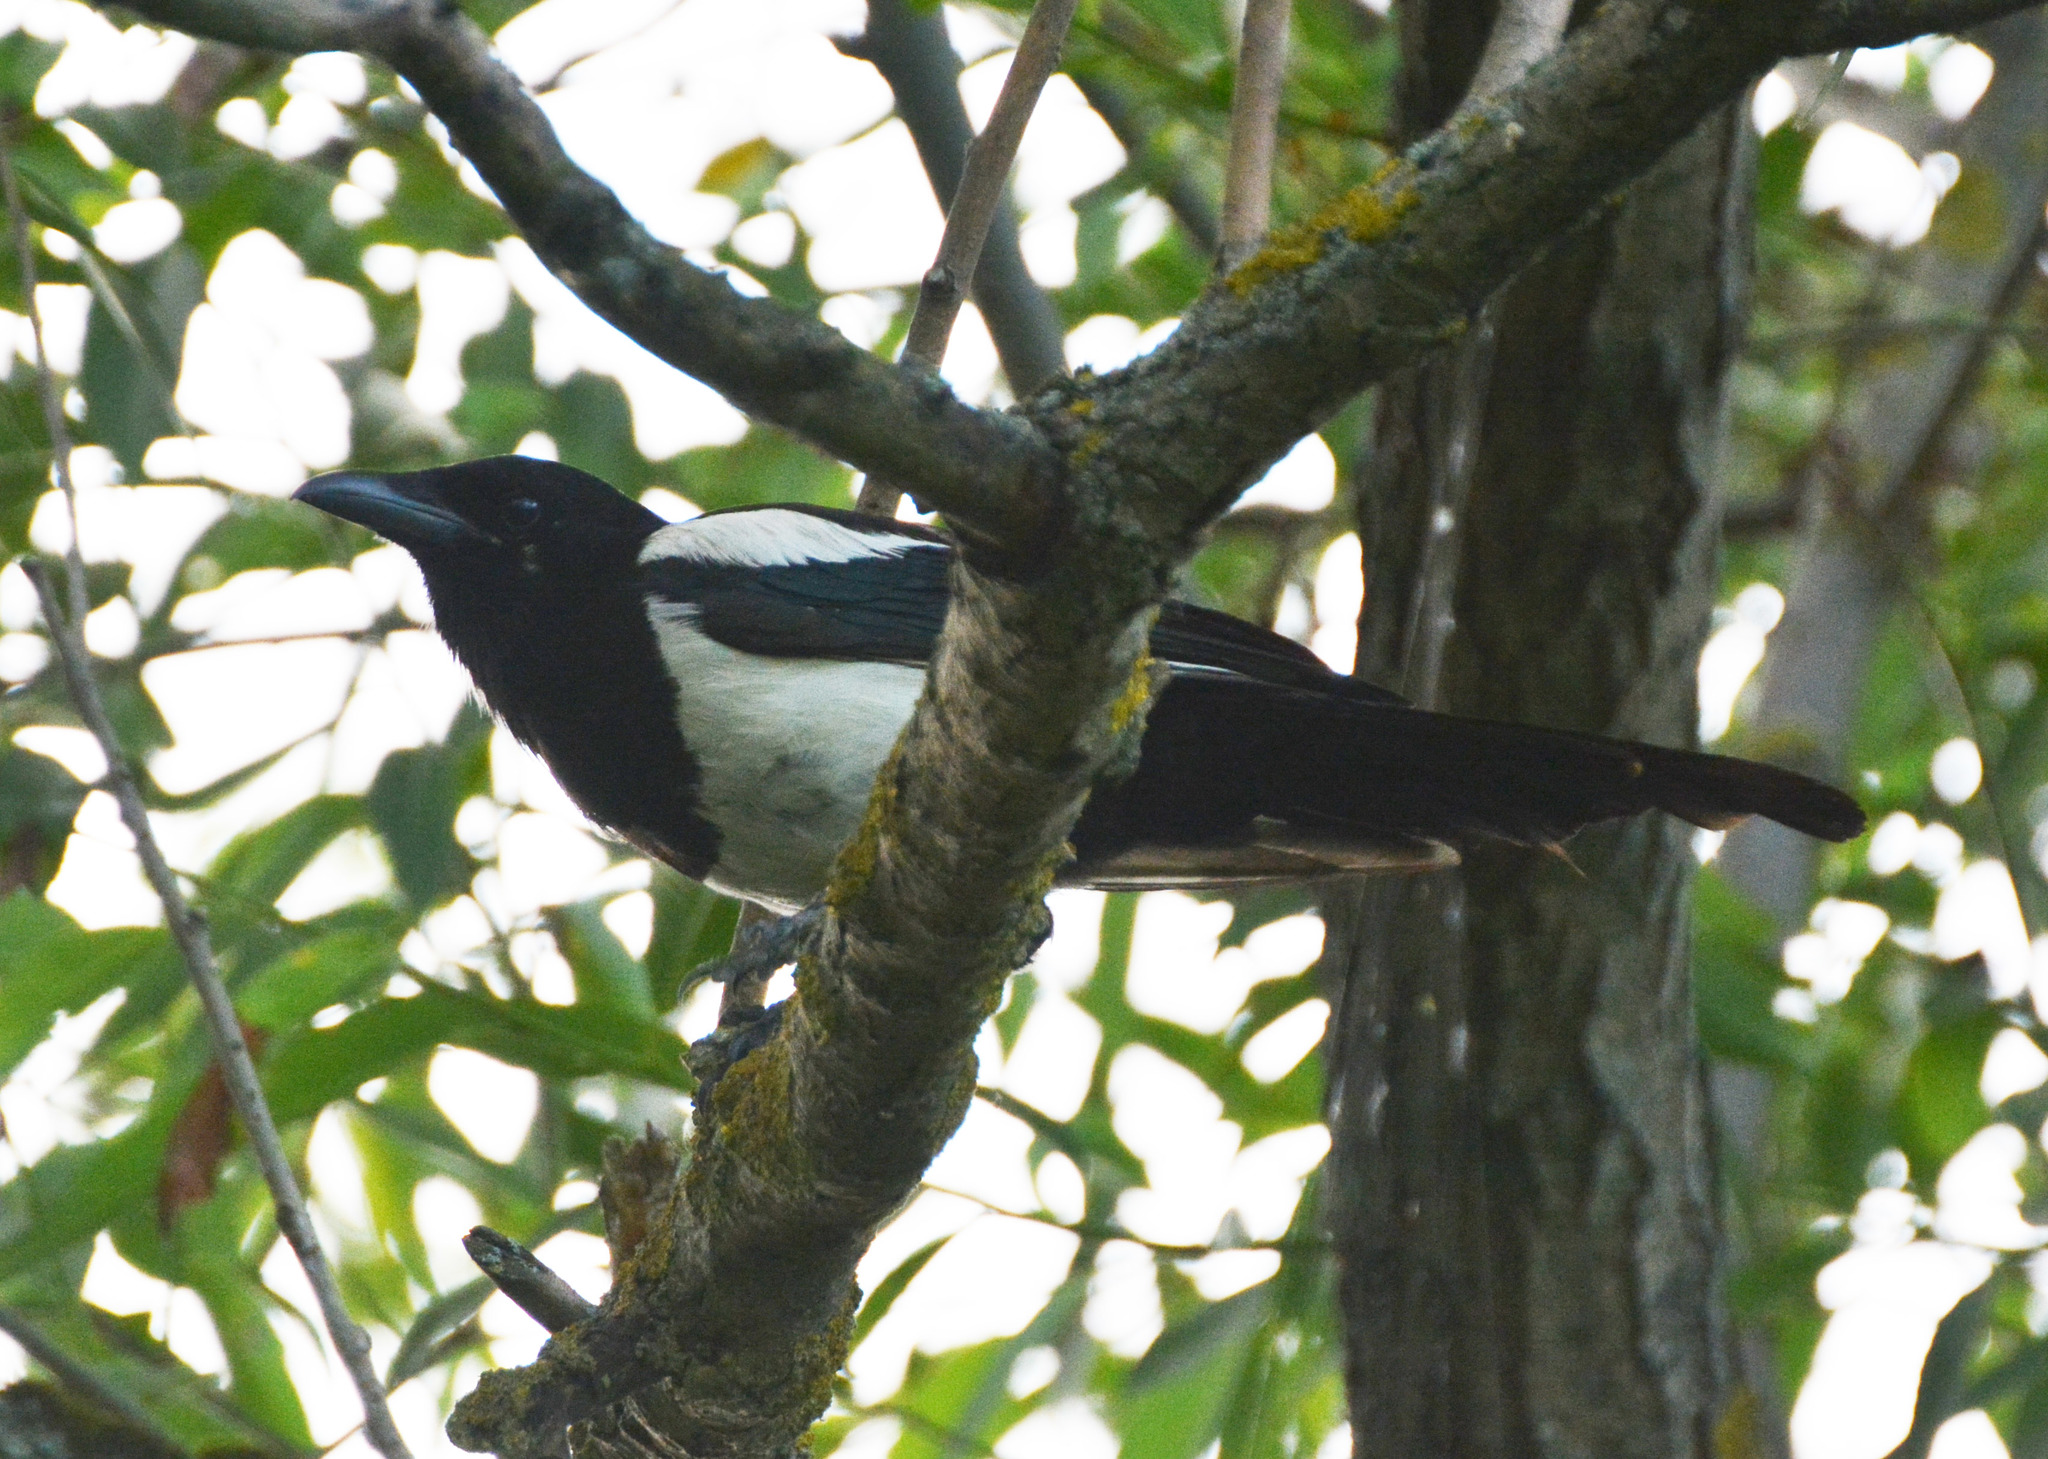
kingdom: Animalia
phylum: Chordata
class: Aves
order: Passeriformes
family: Corvidae
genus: Pica
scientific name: Pica pica
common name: Eurasian magpie
